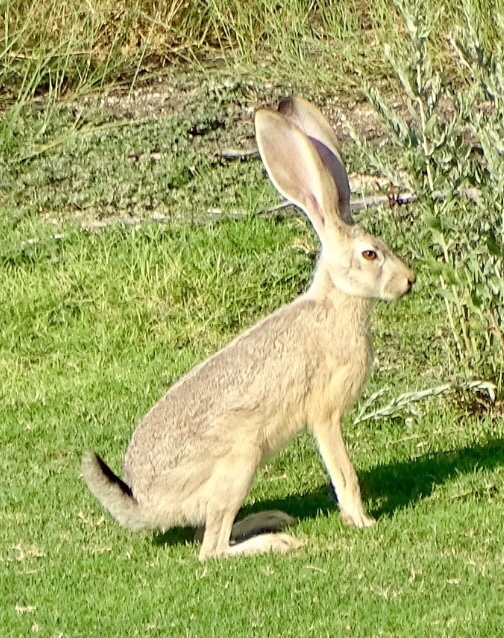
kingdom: Animalia
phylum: Chordata
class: Mammalia
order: Lagomorpha
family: Leporidae
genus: Lepus
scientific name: Lepus californicus
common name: Black-tailed jackrabbit
